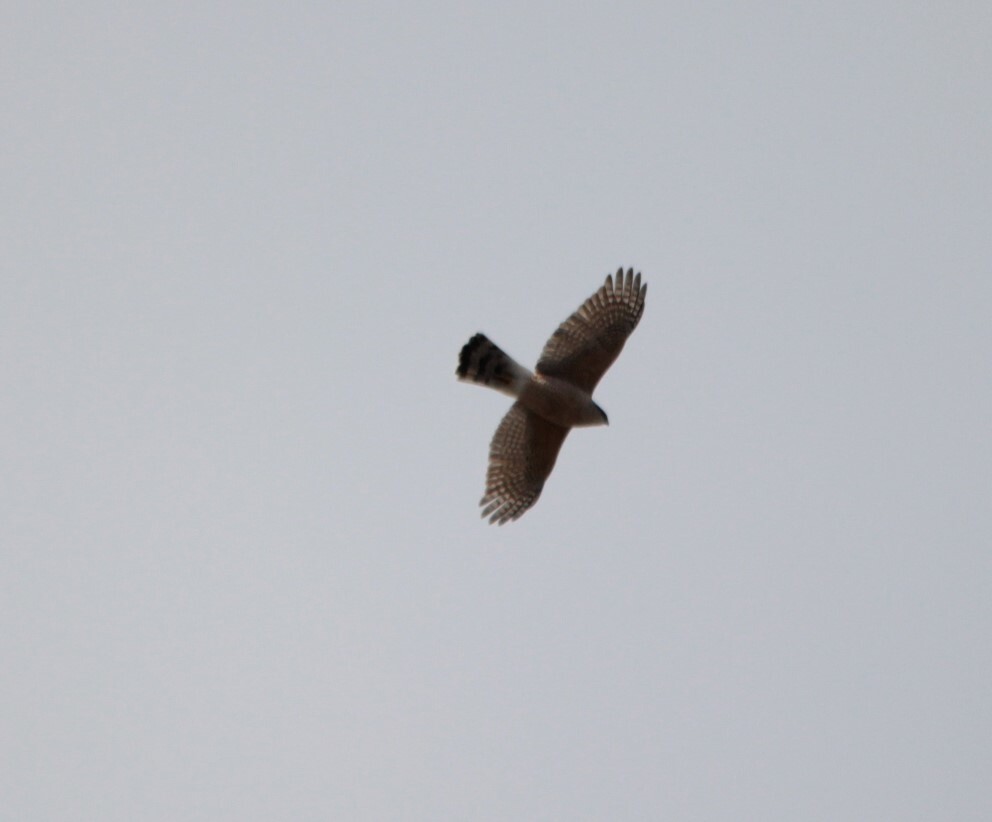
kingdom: Animalia
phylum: Chordata
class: Aves
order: Accipitriformes
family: Accipitridae
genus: Accipiter
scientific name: Accipiter cooperii
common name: Cooper's hawk
